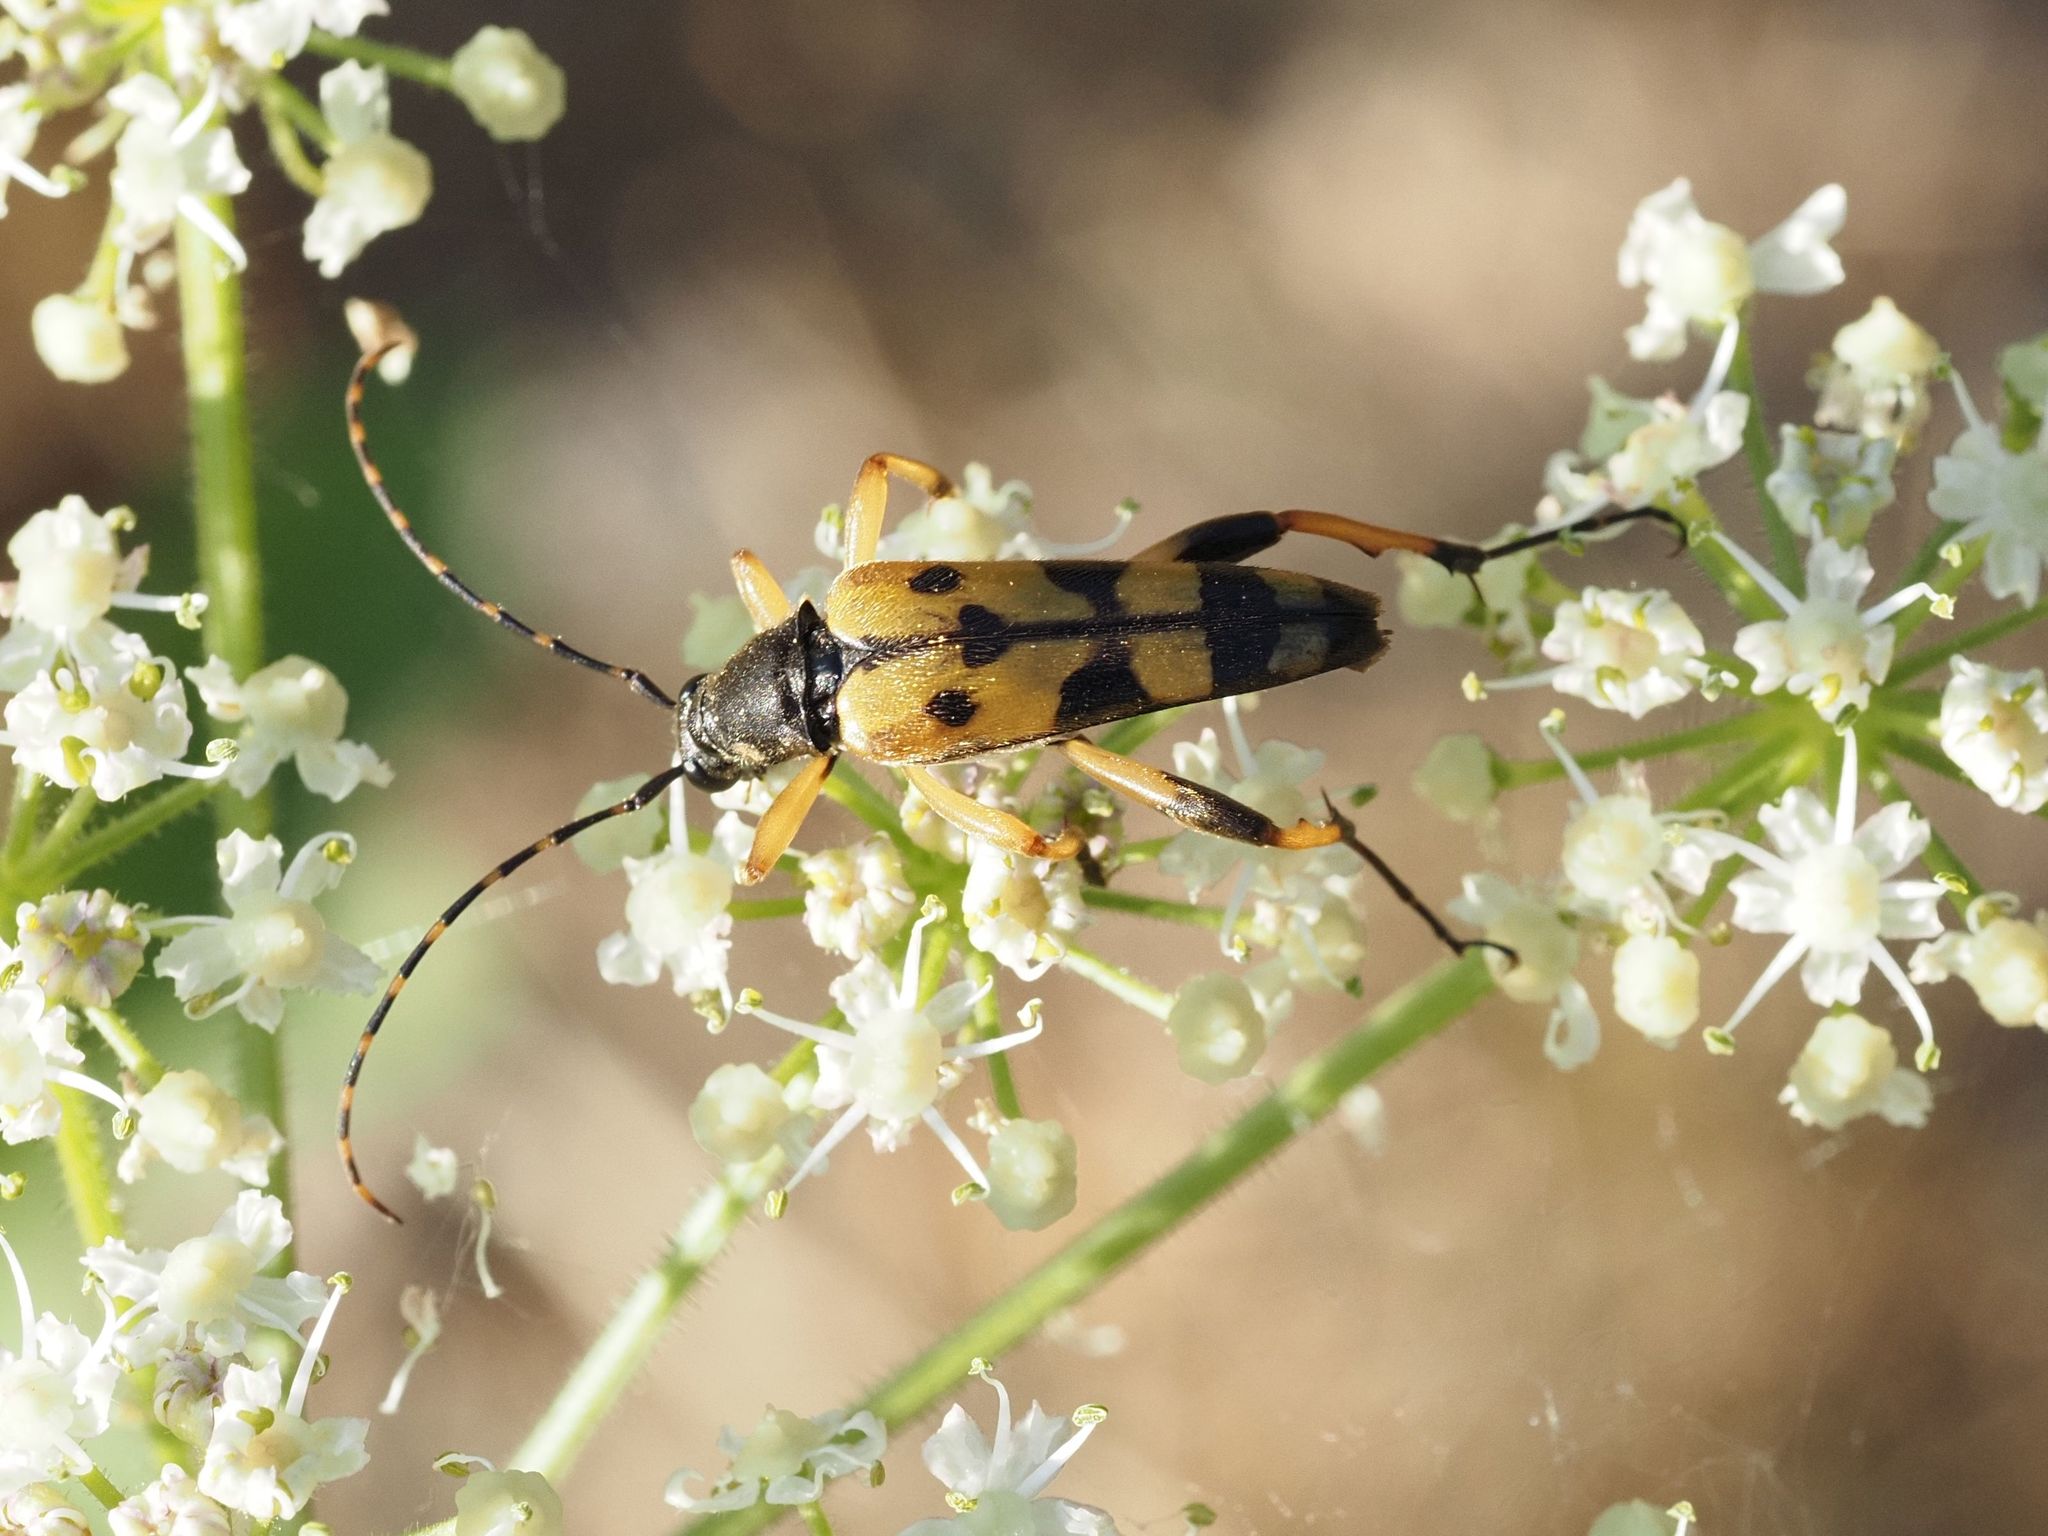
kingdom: Animalia
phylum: Arthropoda
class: Insecta
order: Coleoptera
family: Cerambycidae
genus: Rutpela
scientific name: Rutpela maculata
